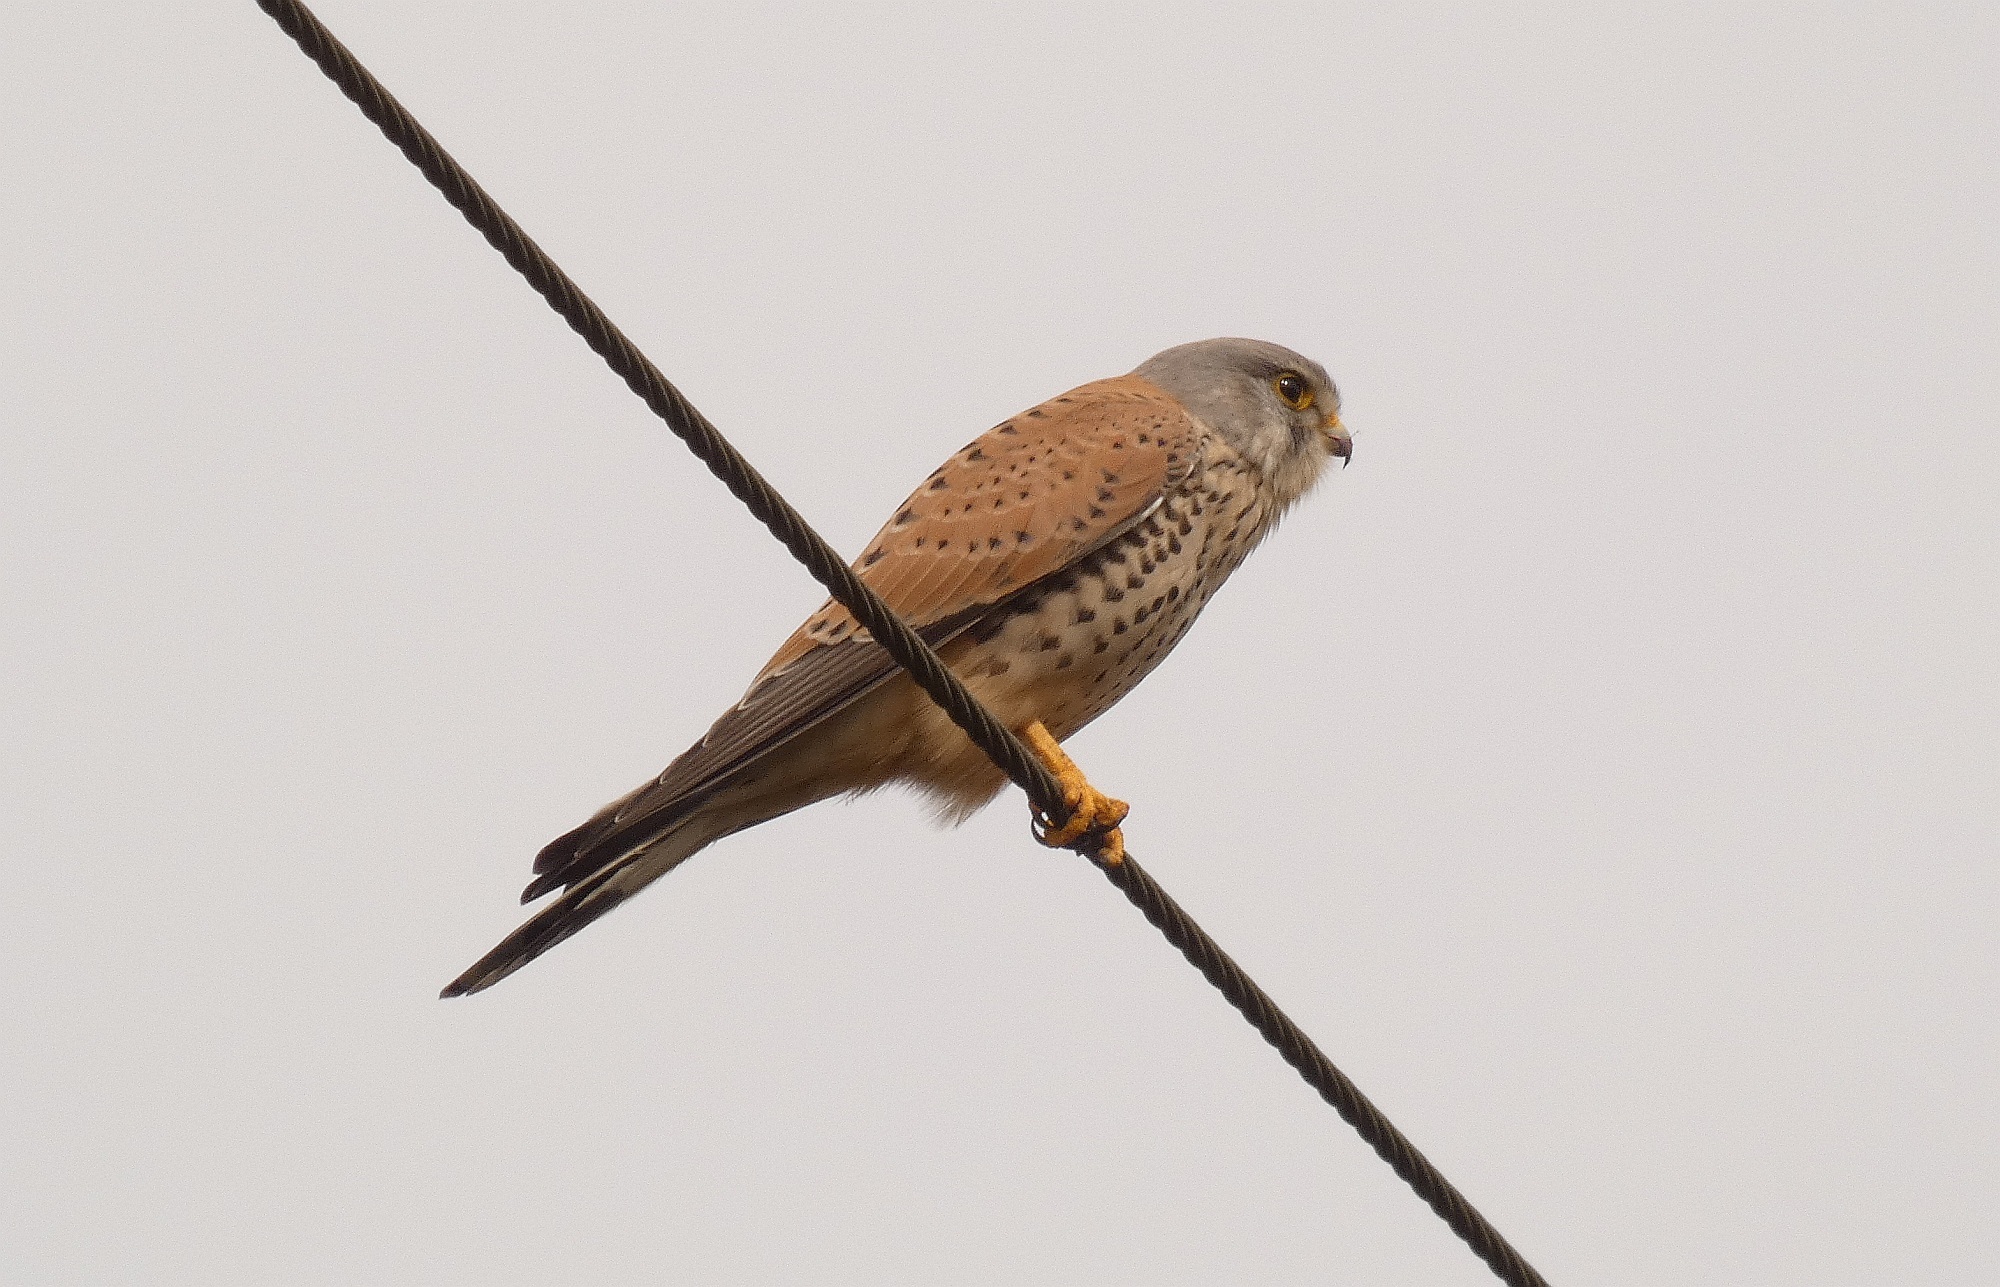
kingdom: Animalia
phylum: Chordata
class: Aves
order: Falconiformes
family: Falconidae
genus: Falco
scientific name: Falco tinnunculus
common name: Common kestrel
